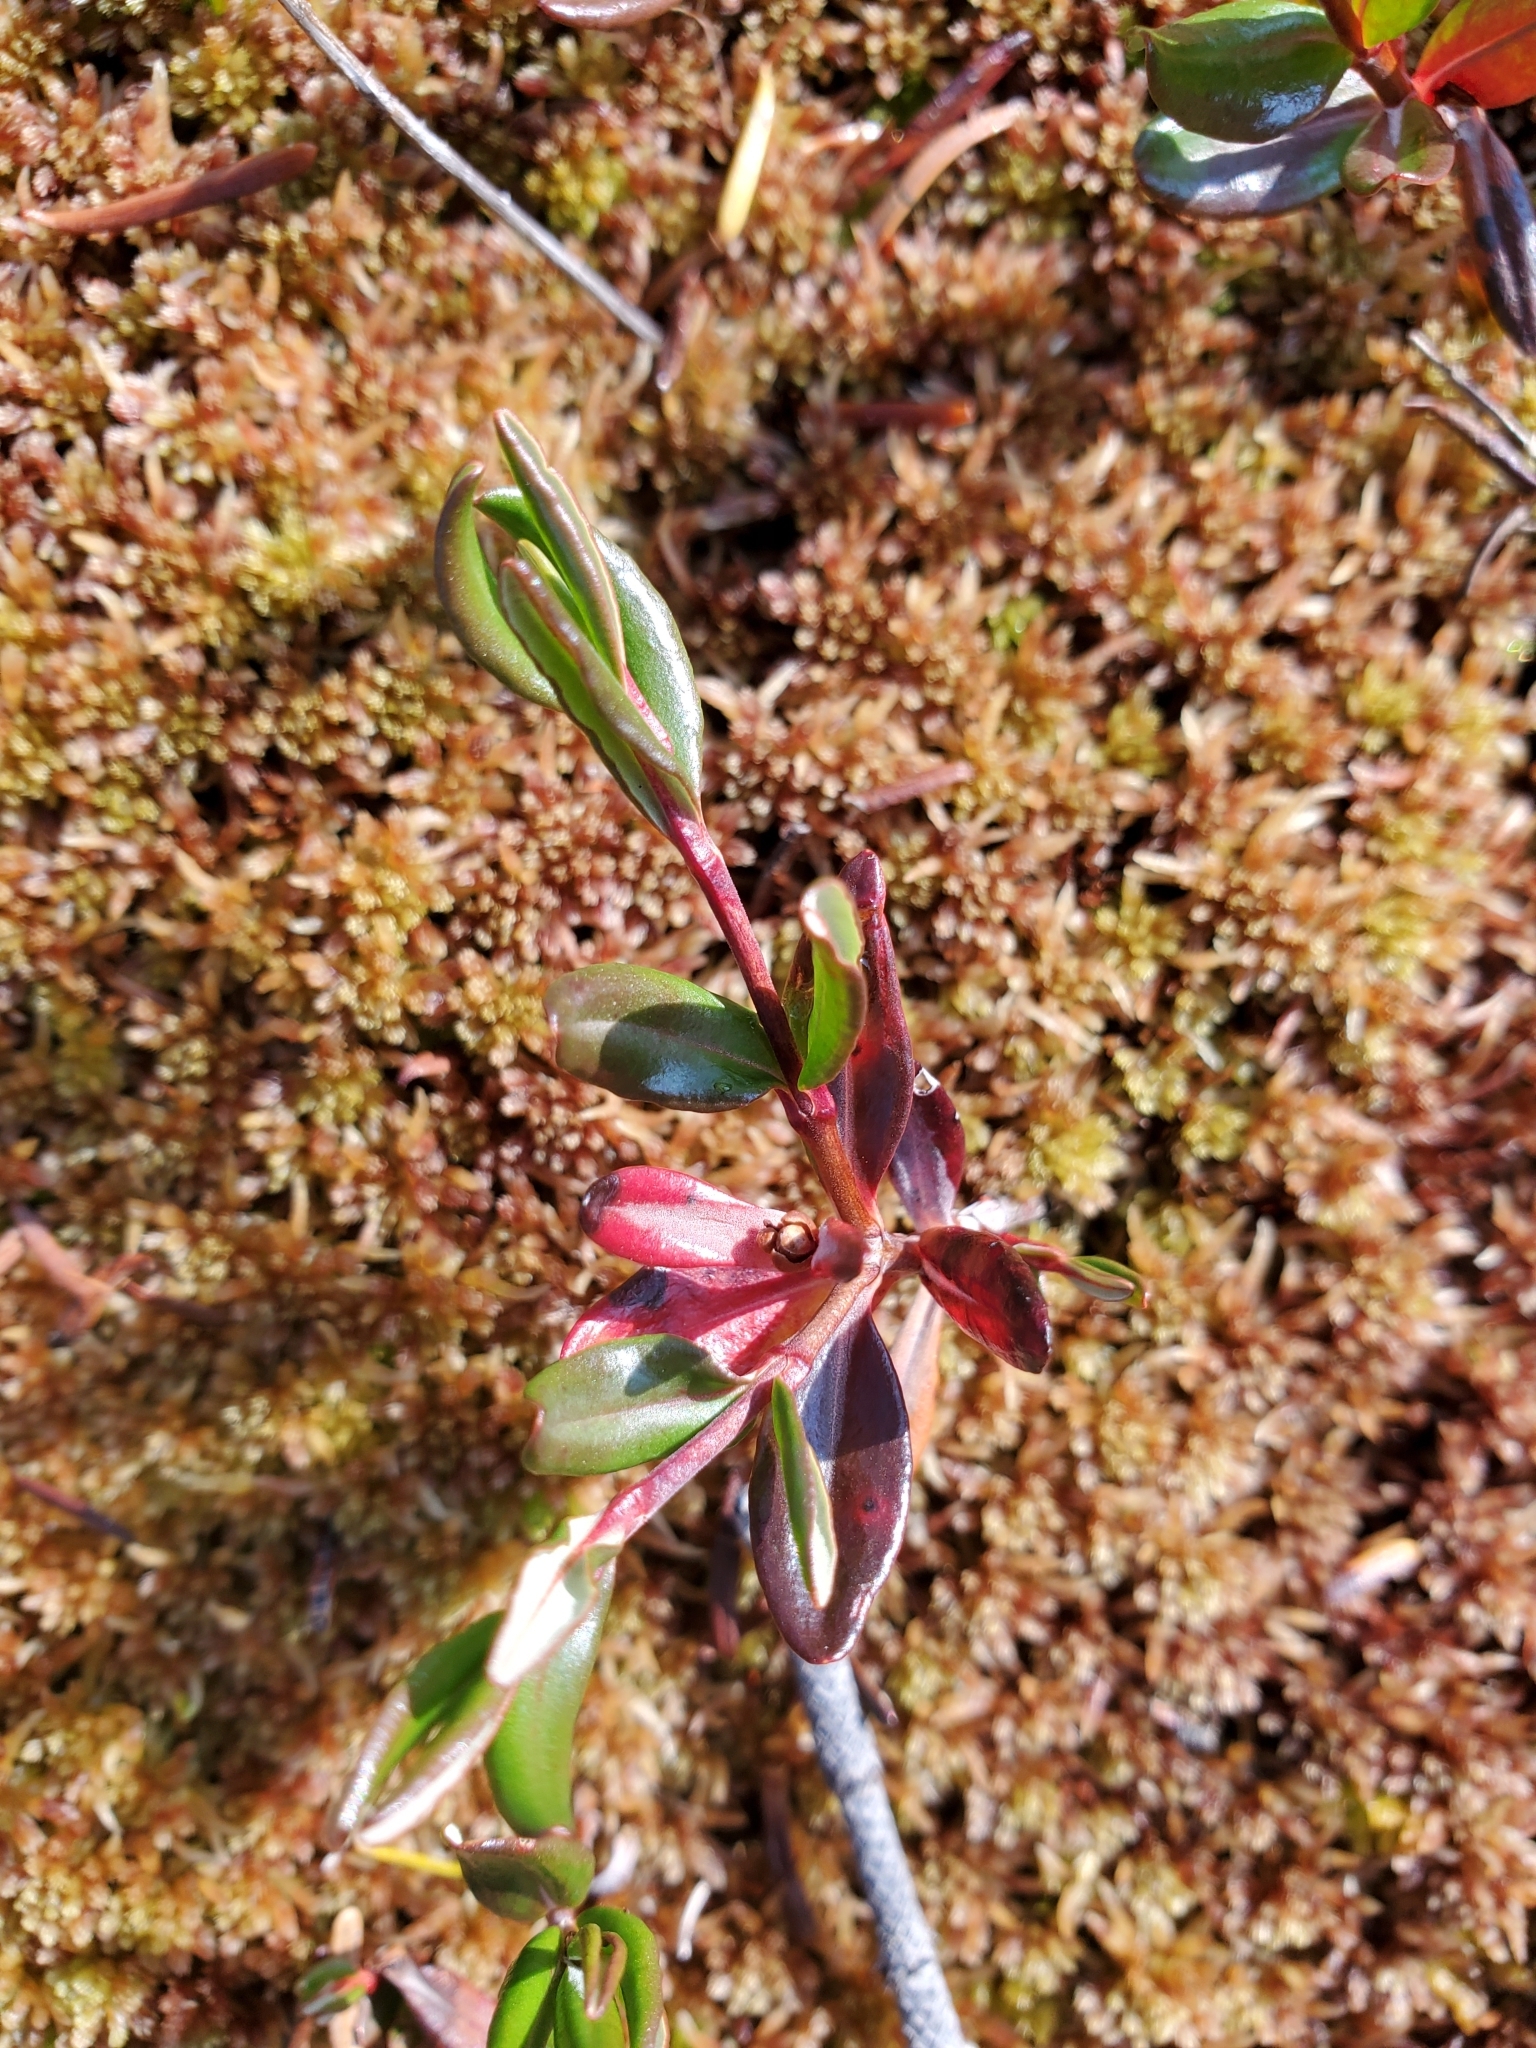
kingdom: Plantae
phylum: Tracheophyta
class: Magnoliopsida
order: Ericales
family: Ericaceae
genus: Kalmia
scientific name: Kalmia microphylla
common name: Alpine bog laurel
